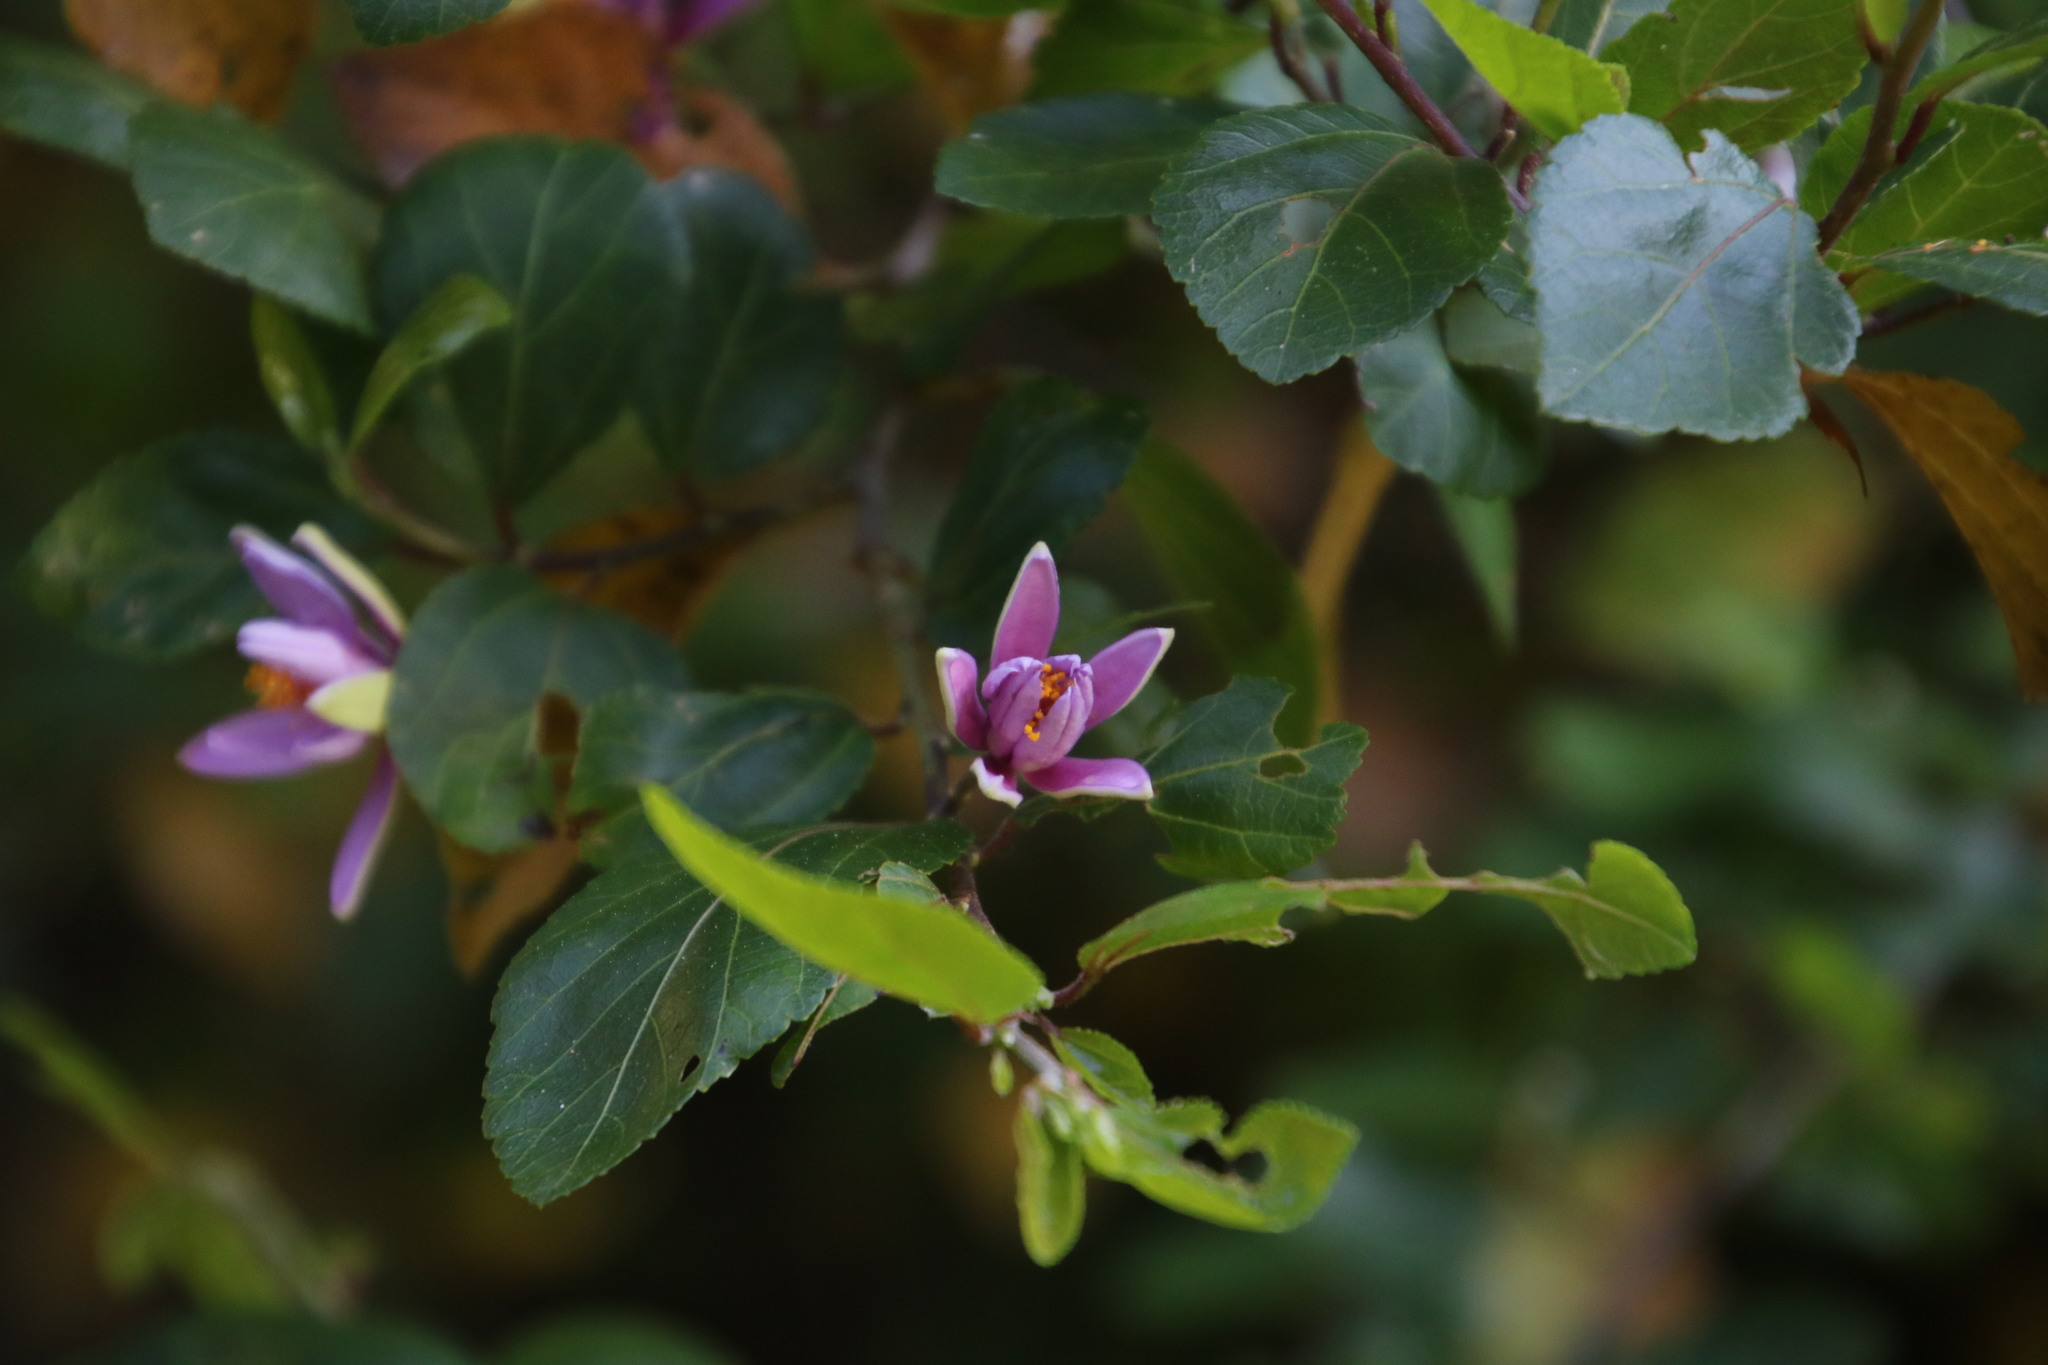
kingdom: Plantae
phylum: Tracheophyta
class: Magnoliopsida
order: Malvales
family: Malvaceae
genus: Grewia
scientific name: Grewia occidentalis
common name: Crossberry
